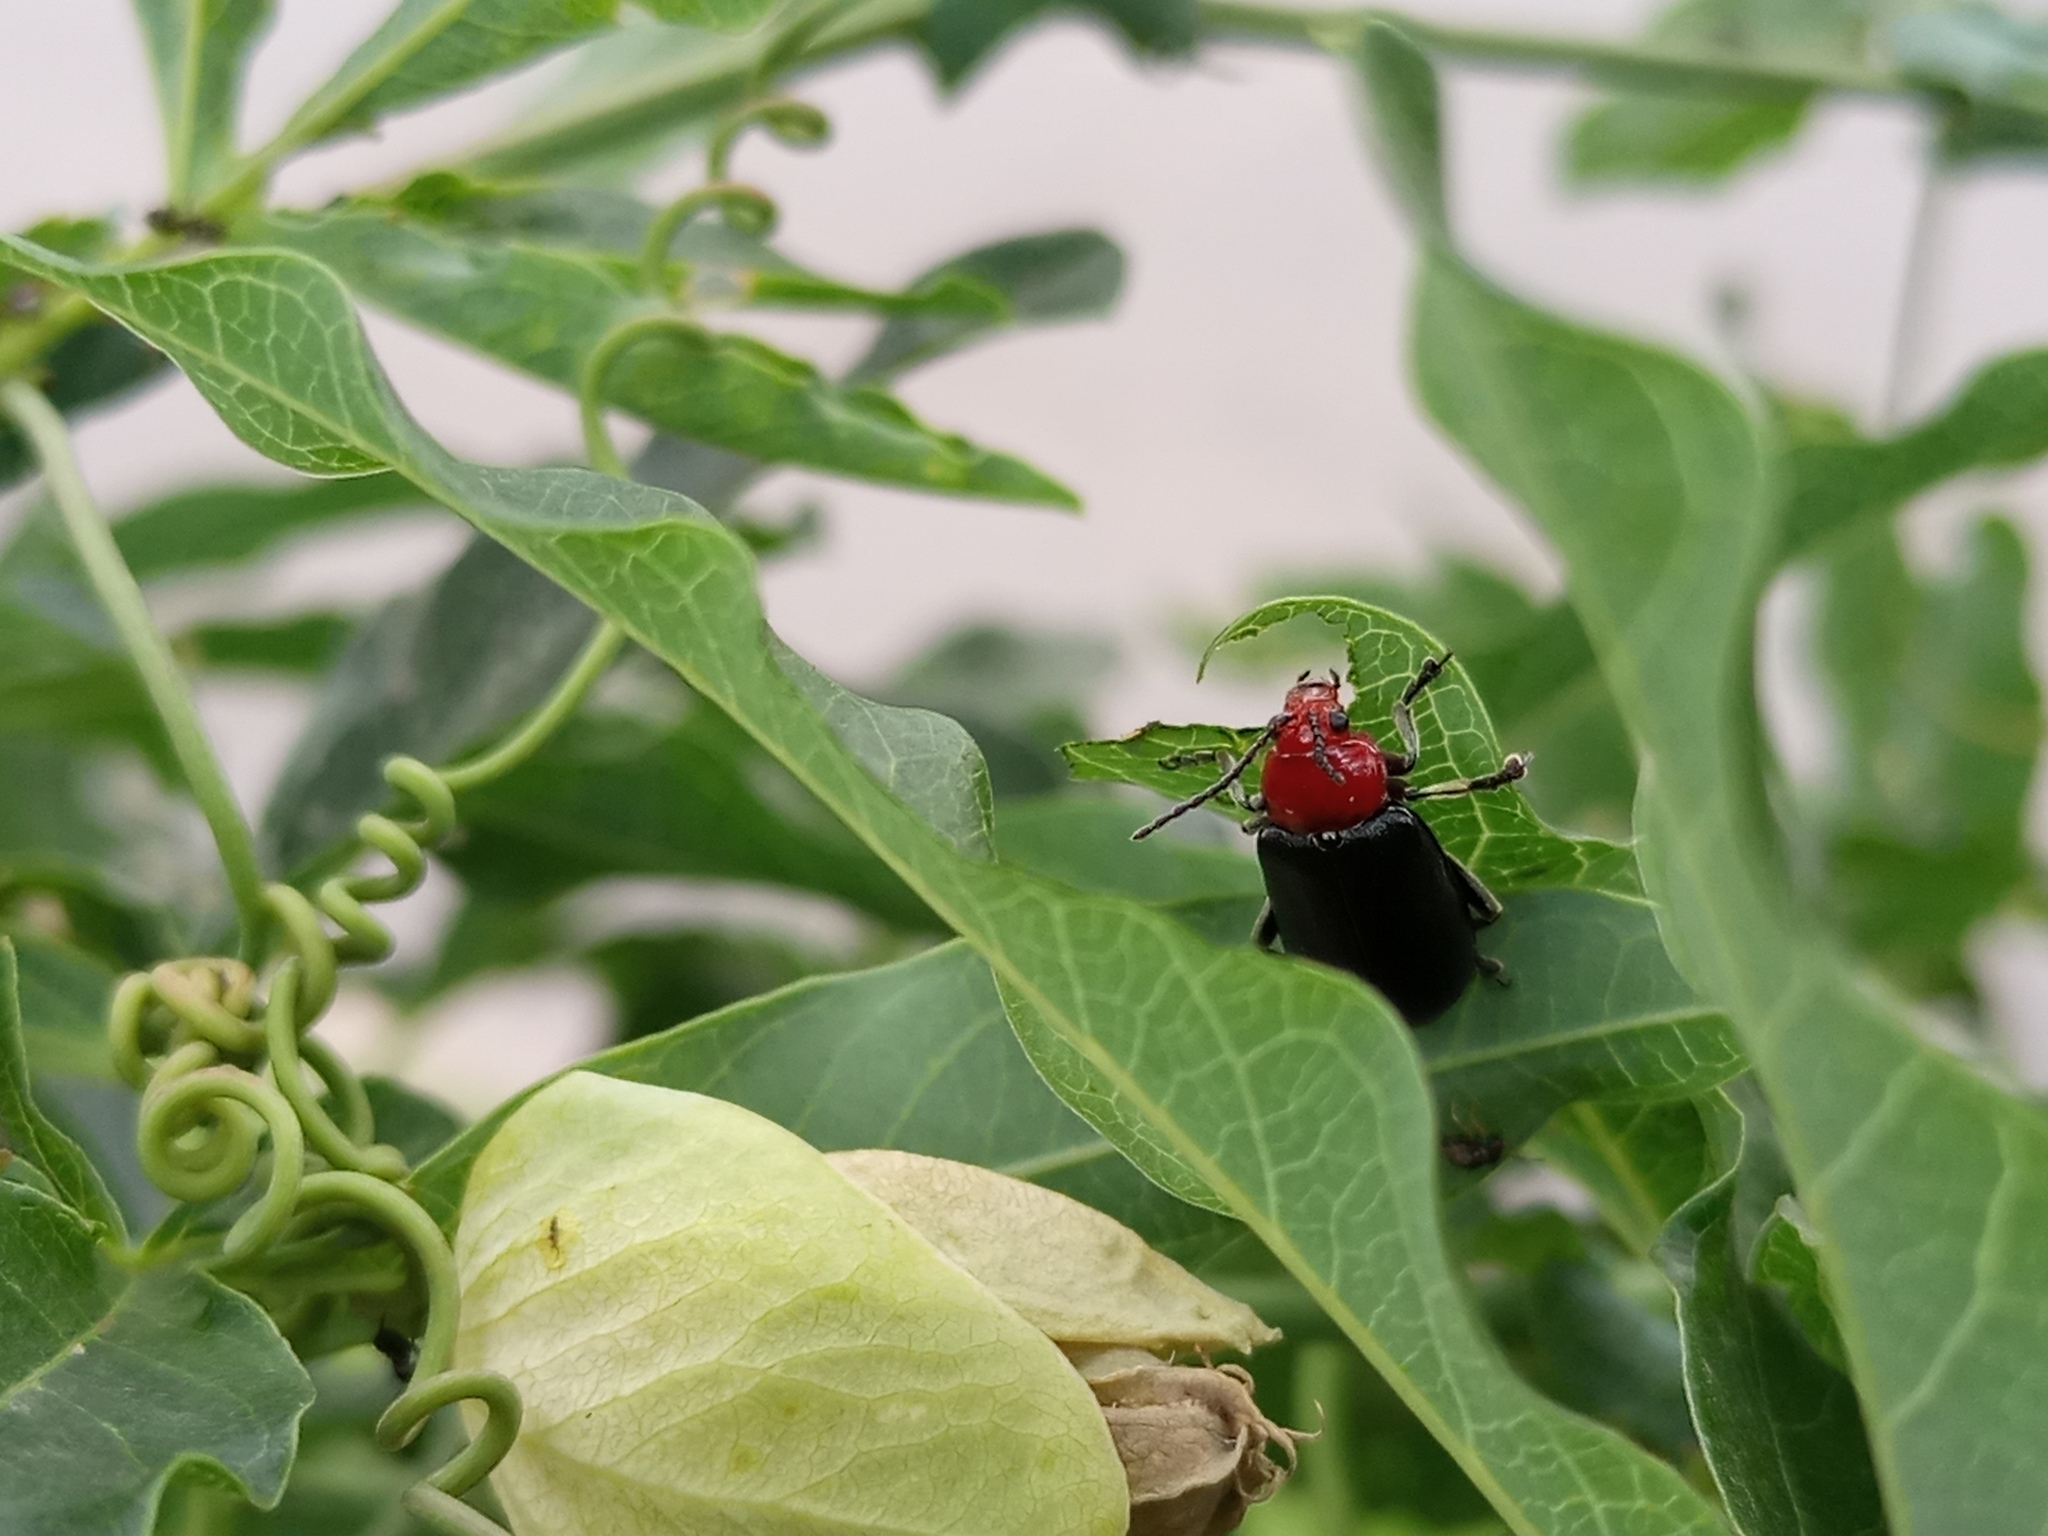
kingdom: Animalia
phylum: Arthropoda
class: Insecta
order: Coleoptera
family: Chrysomelidae
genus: Cacoscelis
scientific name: Cacoscelis
